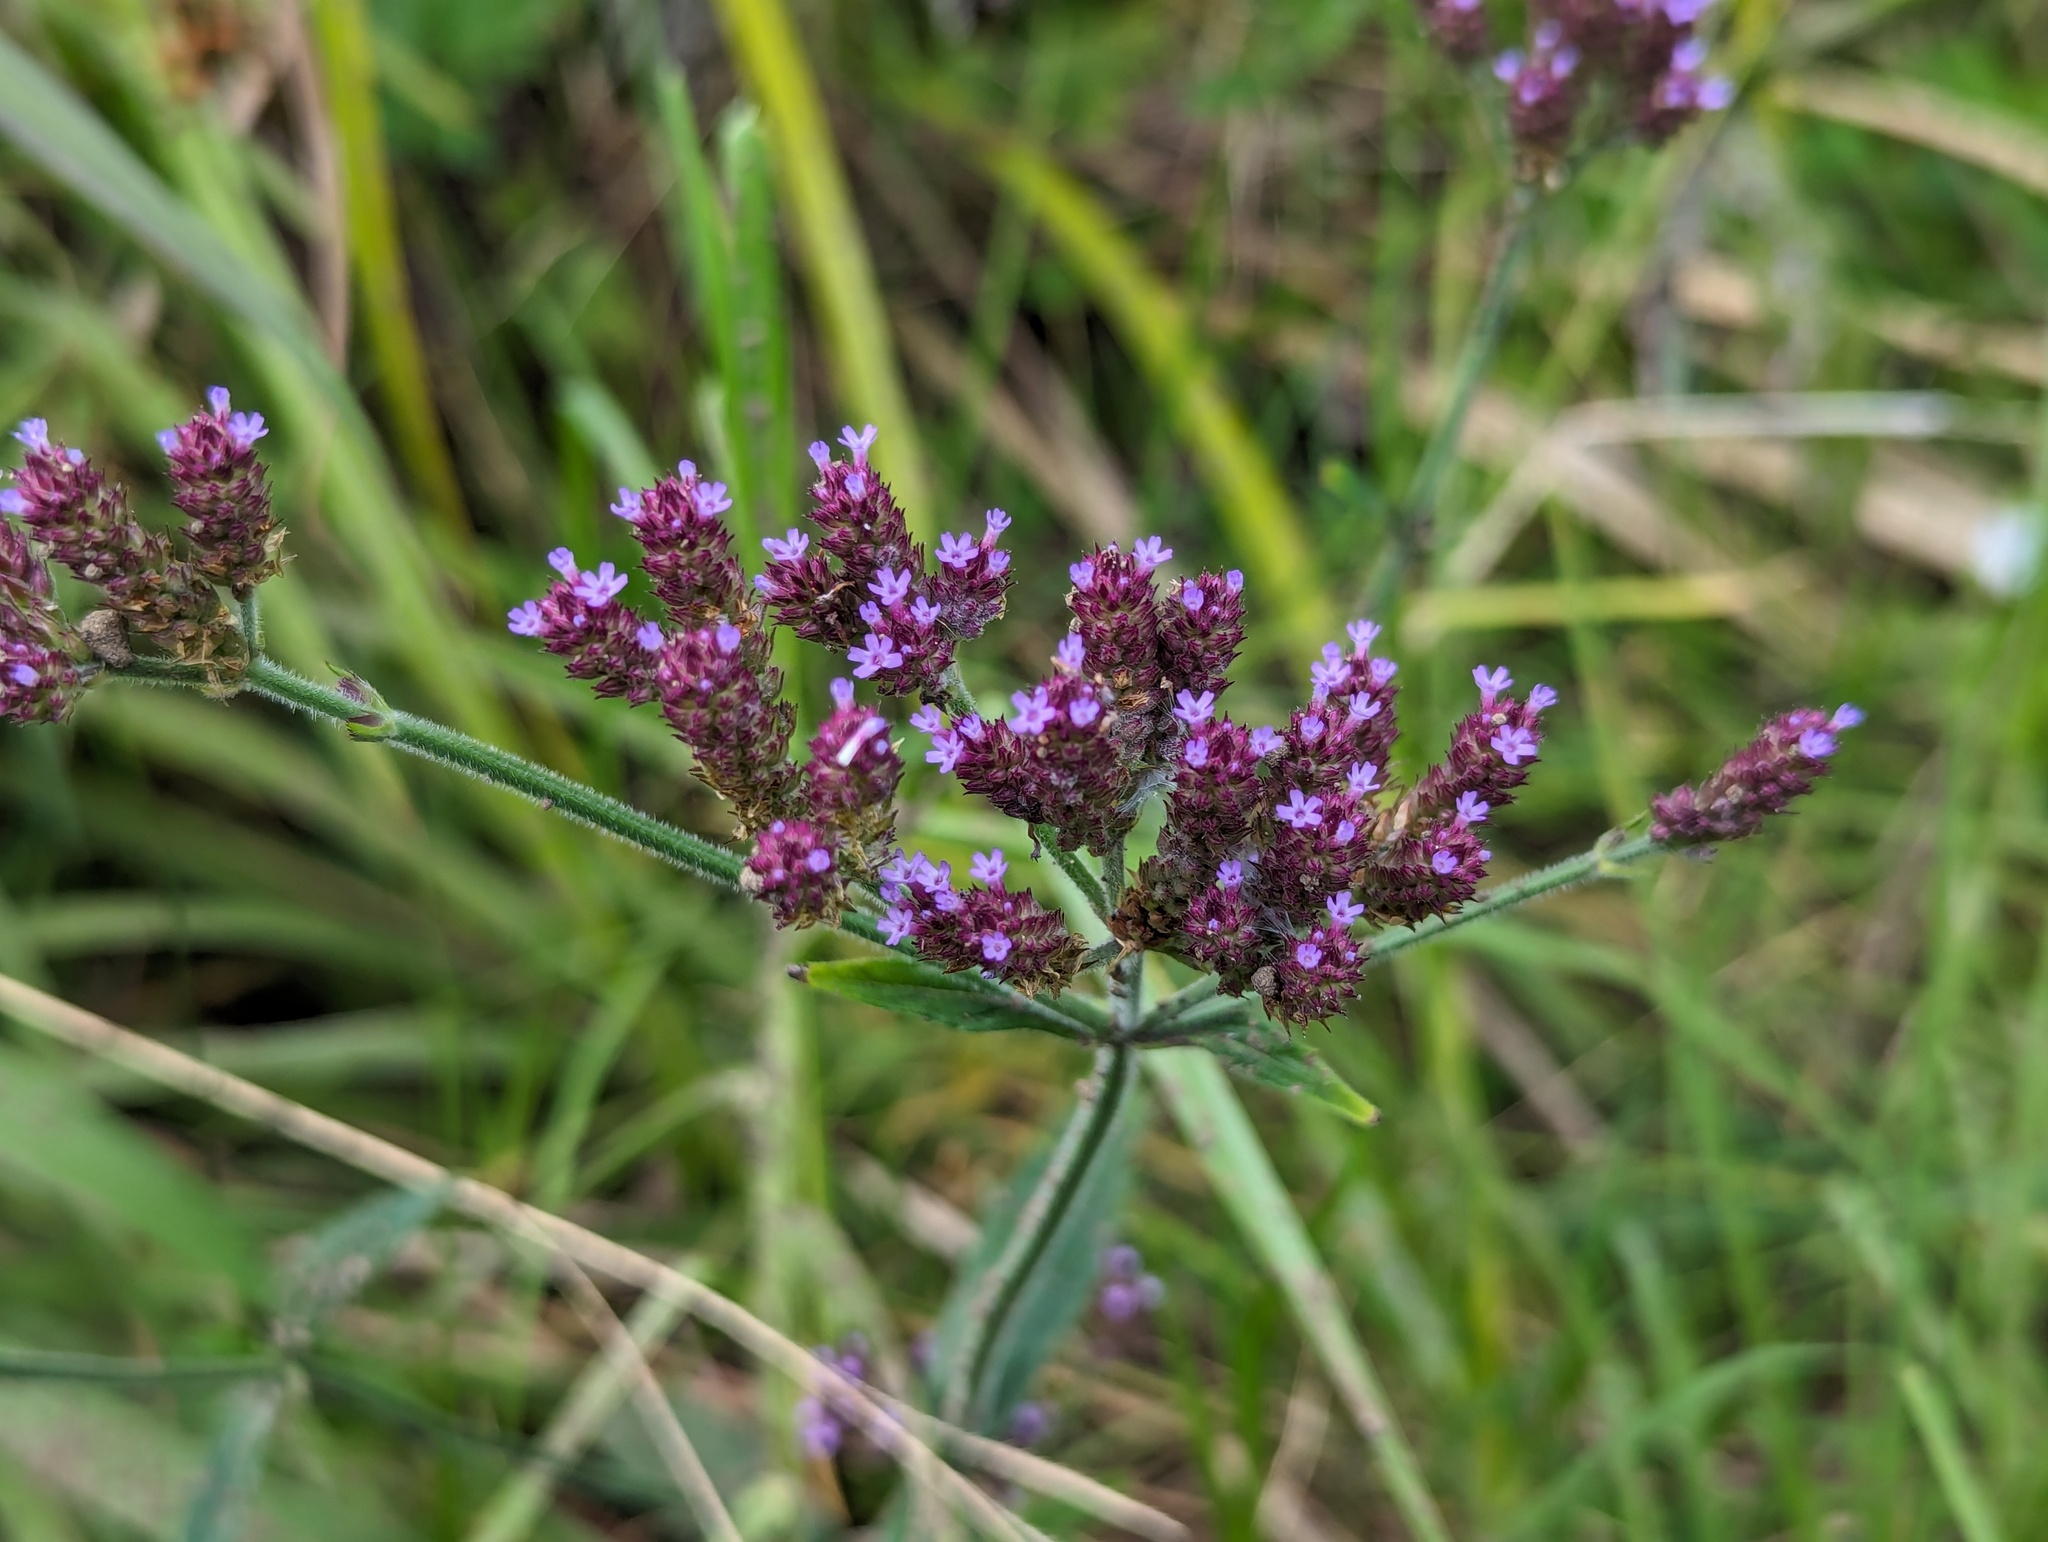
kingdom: Plantae
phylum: Tracheophyta
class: Magnoliopsida
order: Lamiales
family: Verbenaceae
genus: Verbena
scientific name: Verbena incompta
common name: Purpletop vervain
